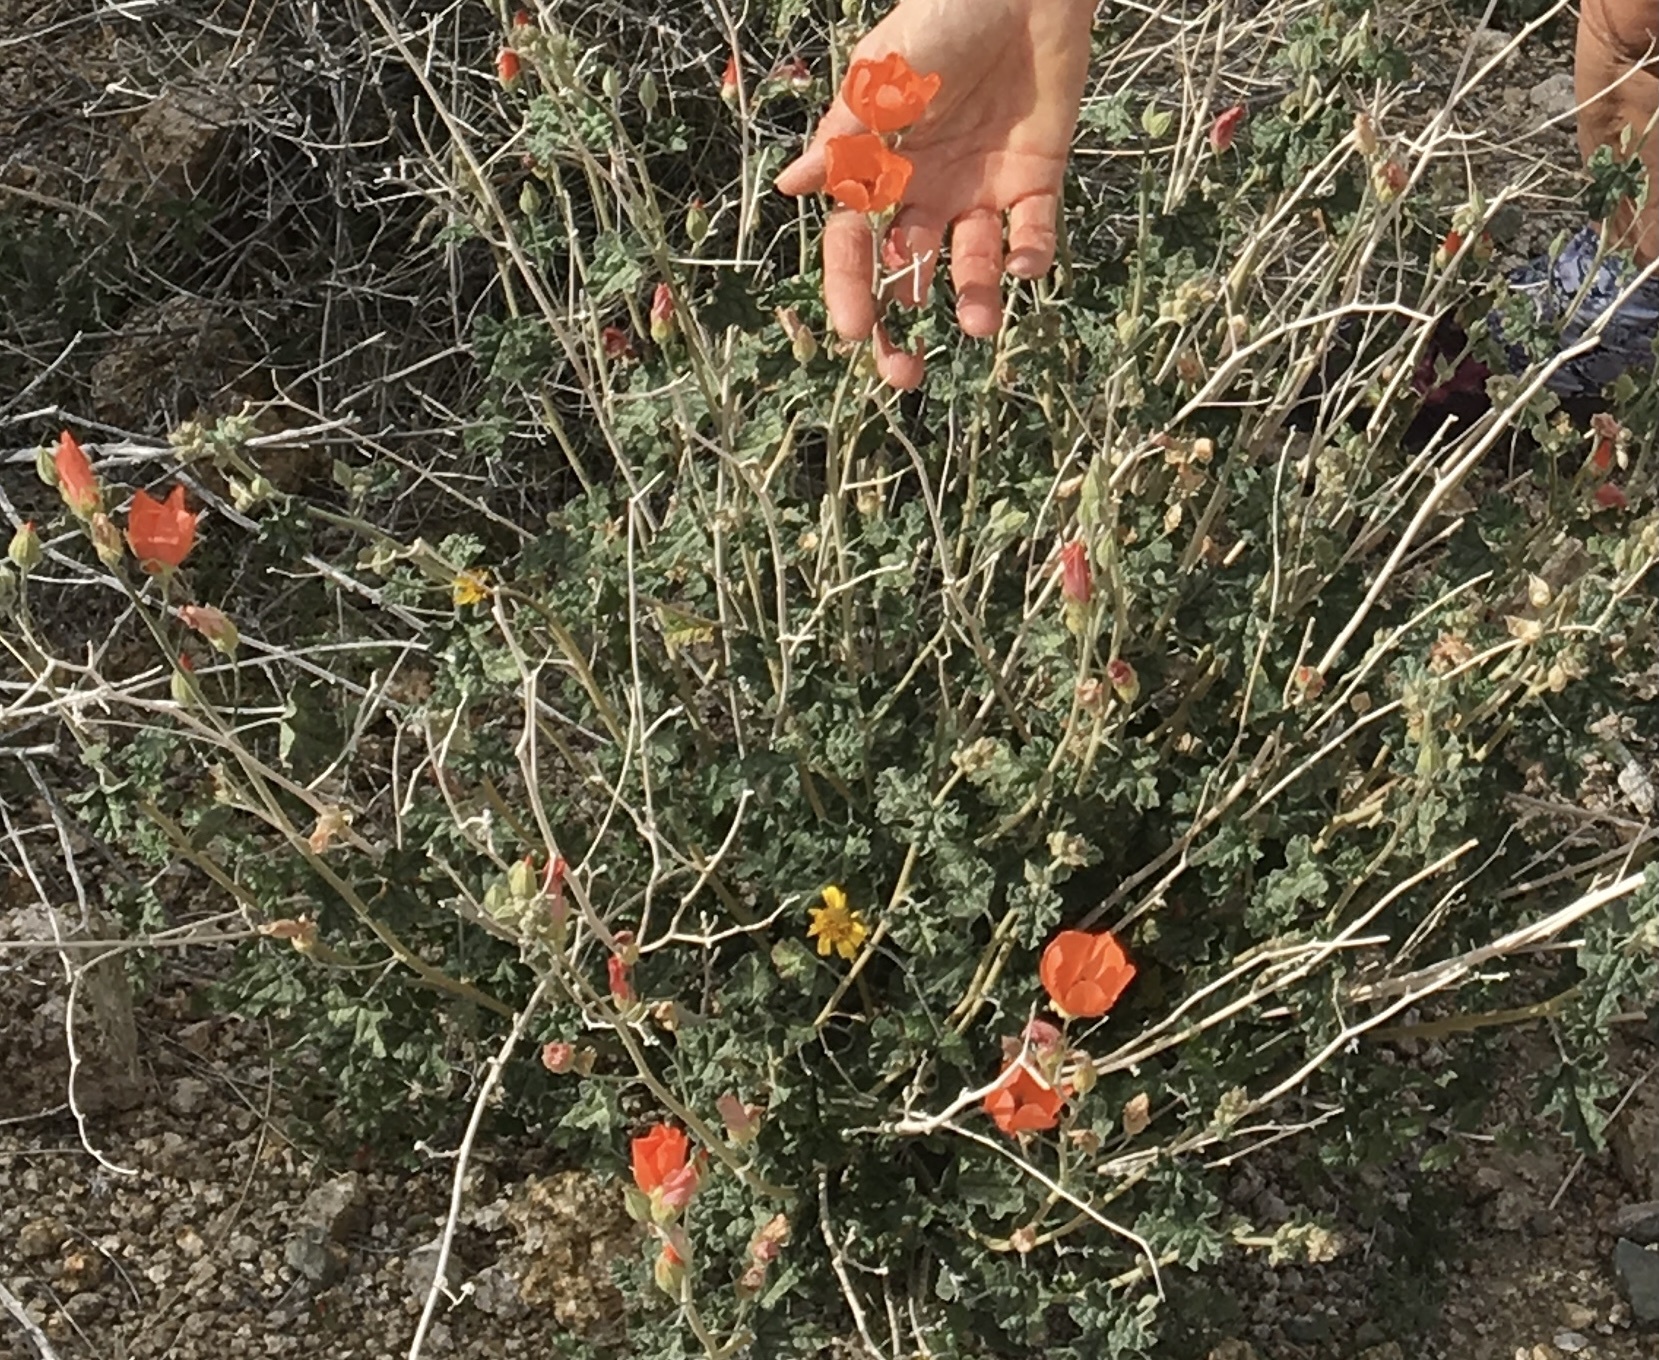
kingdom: Plantae
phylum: Tracheophyta
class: Magnoliopsida
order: Malvales
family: Malvaceae
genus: Sphaeralcea
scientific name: Sphaeralcea ambigua
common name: Apricot globe-mallow
